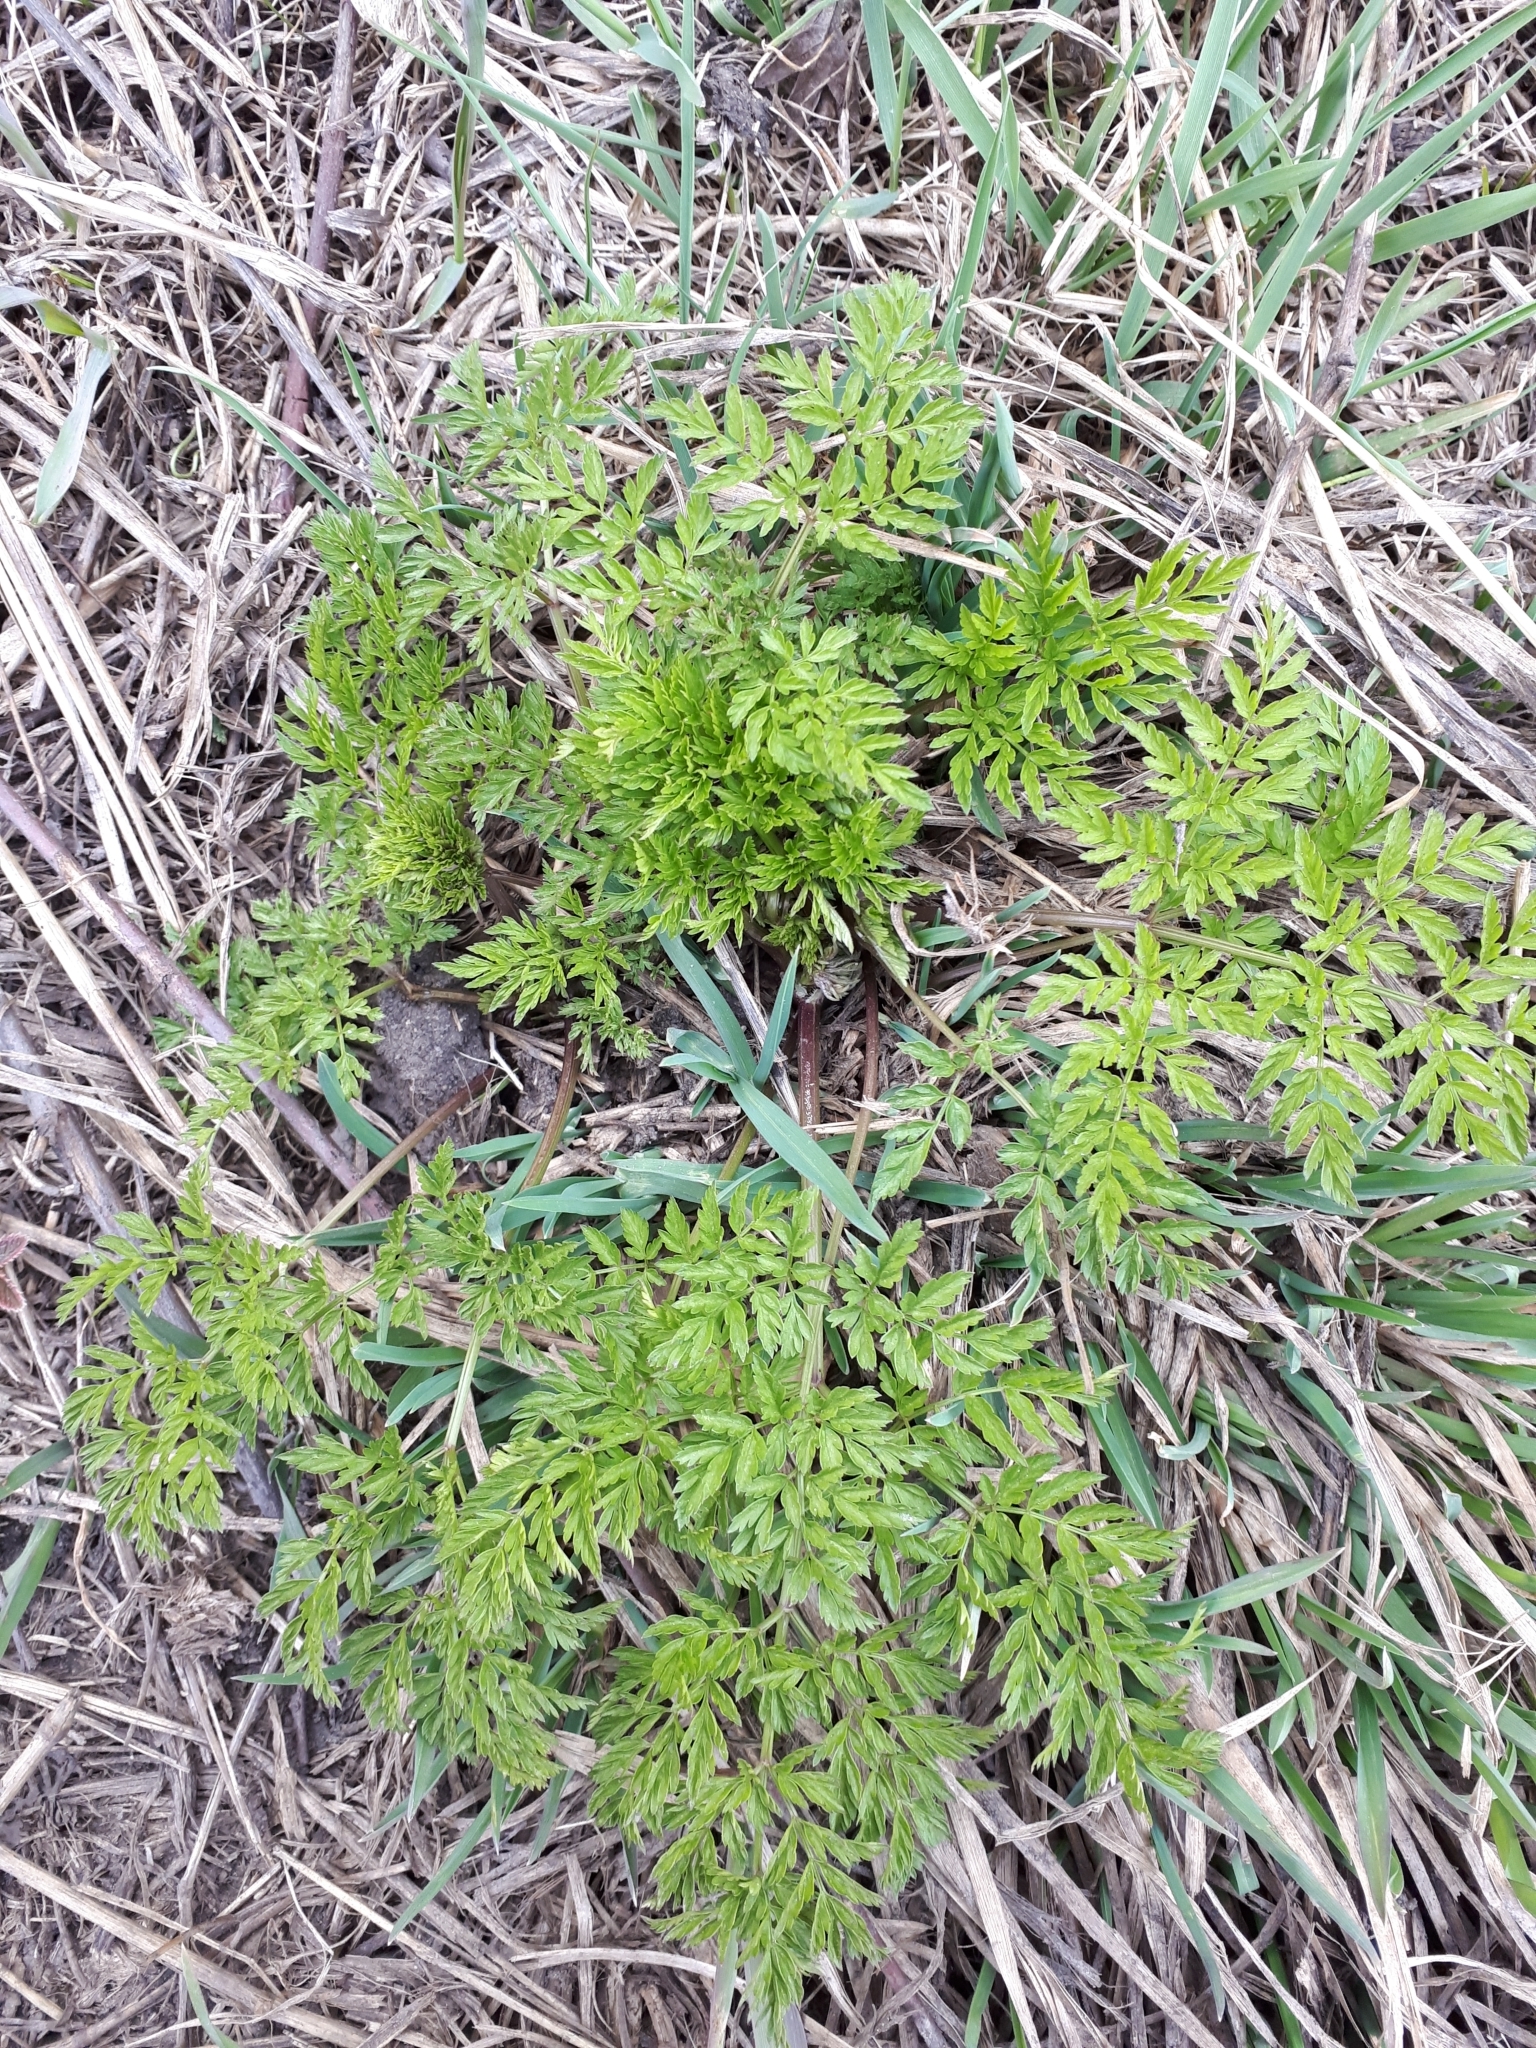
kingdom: Plantae
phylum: Tracheophyta
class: Magnoliopsida
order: Apiales
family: Apiaceae
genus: Anthriscus
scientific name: Anthriscus sylvestris
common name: Cow parsley
